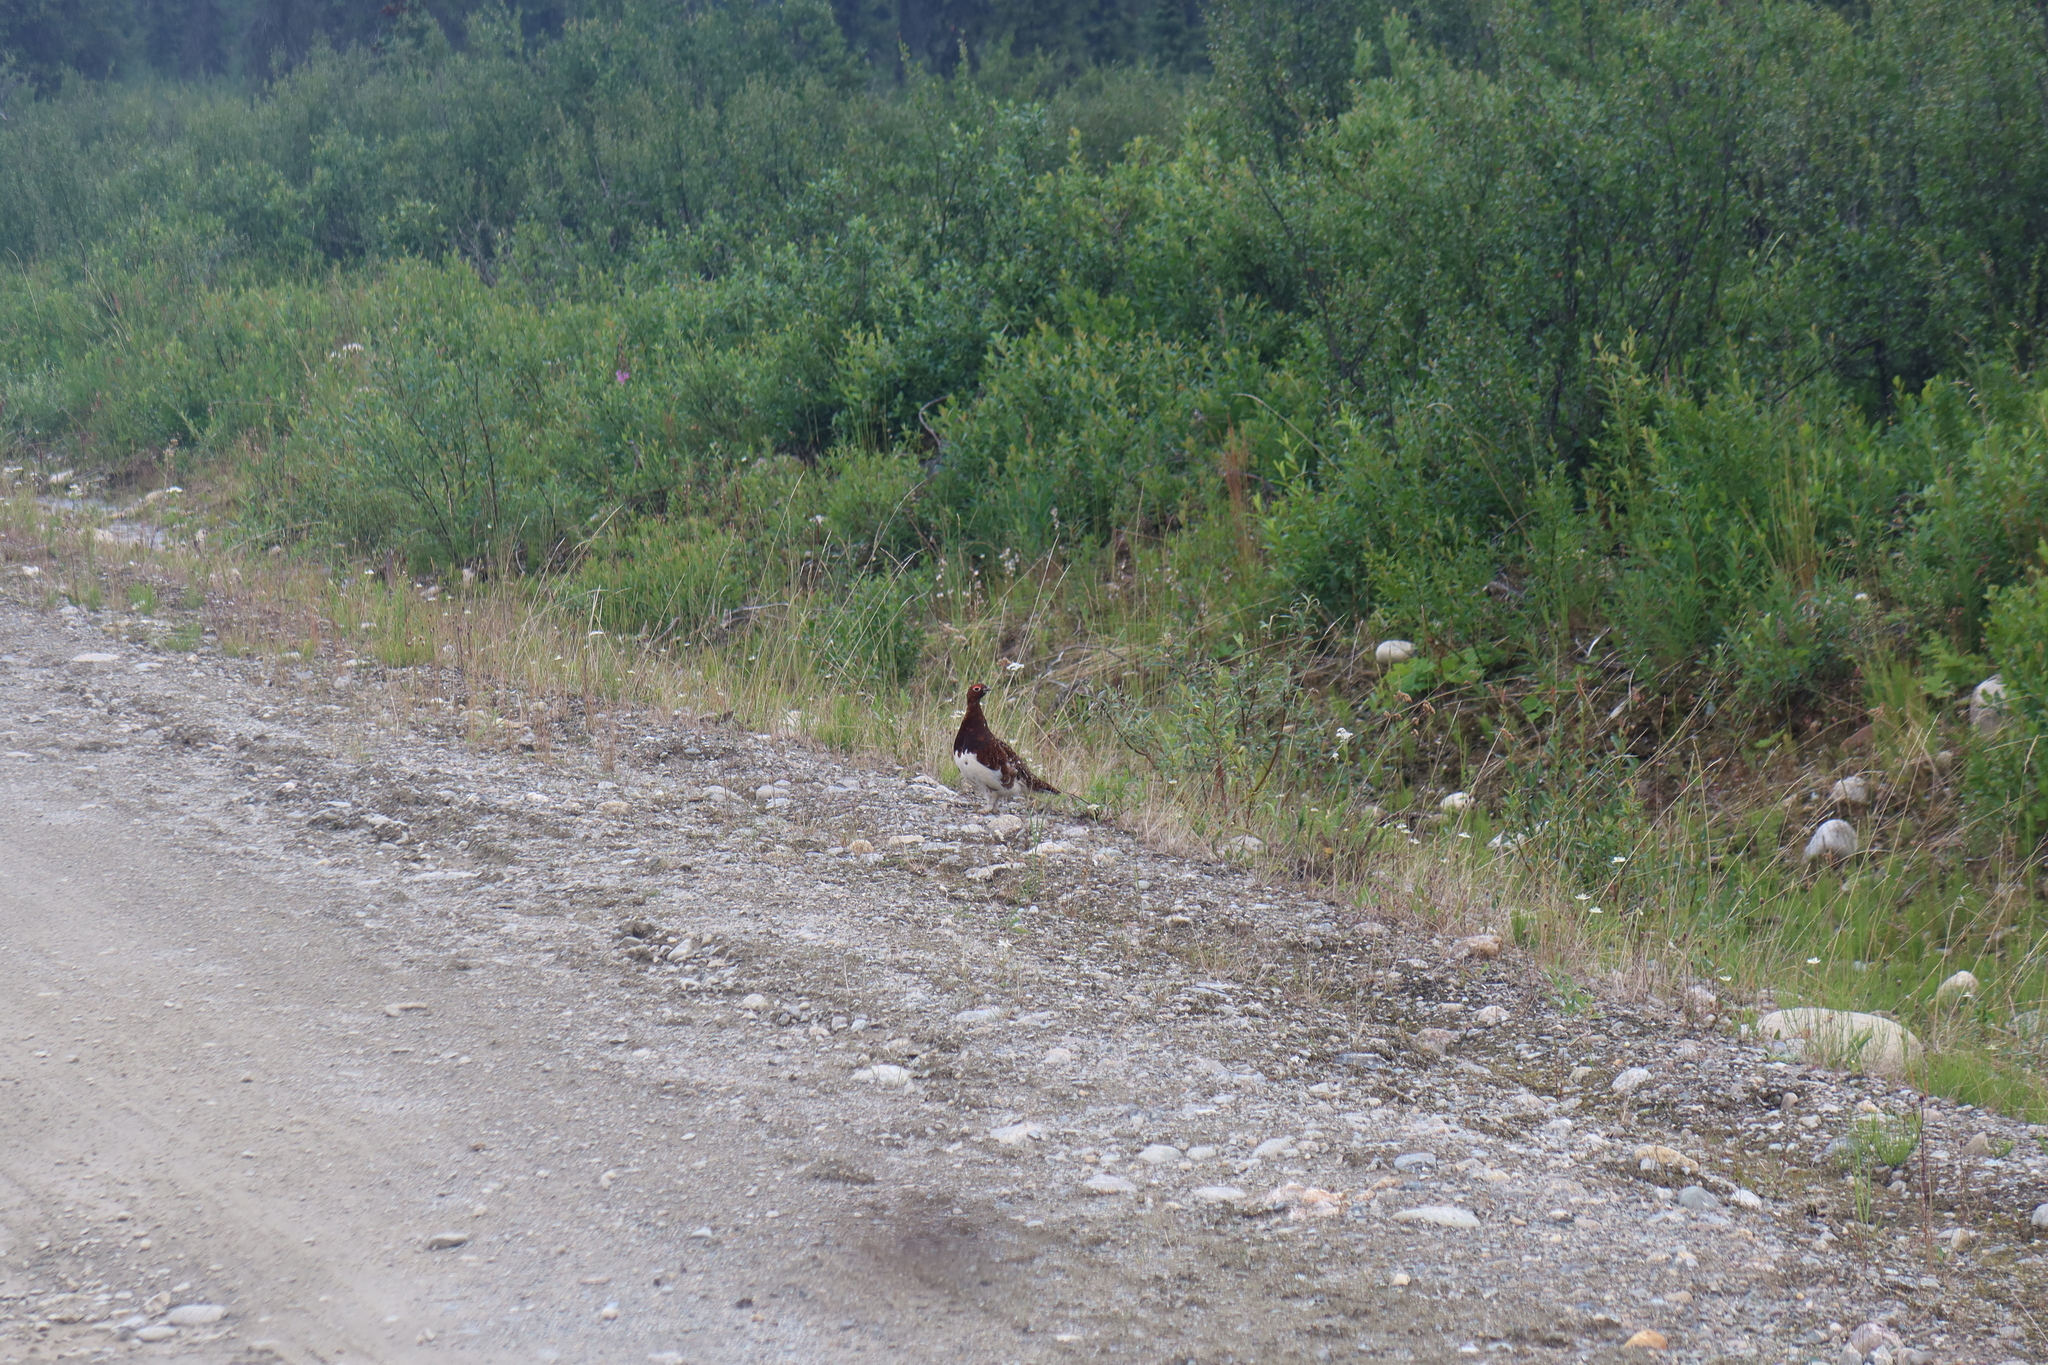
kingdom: Animalia
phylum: Chordata
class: Aves
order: Galliformes
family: Phasianidae
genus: Lagopus
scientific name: Lagopus lagopus
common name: Willow ptarmigan
